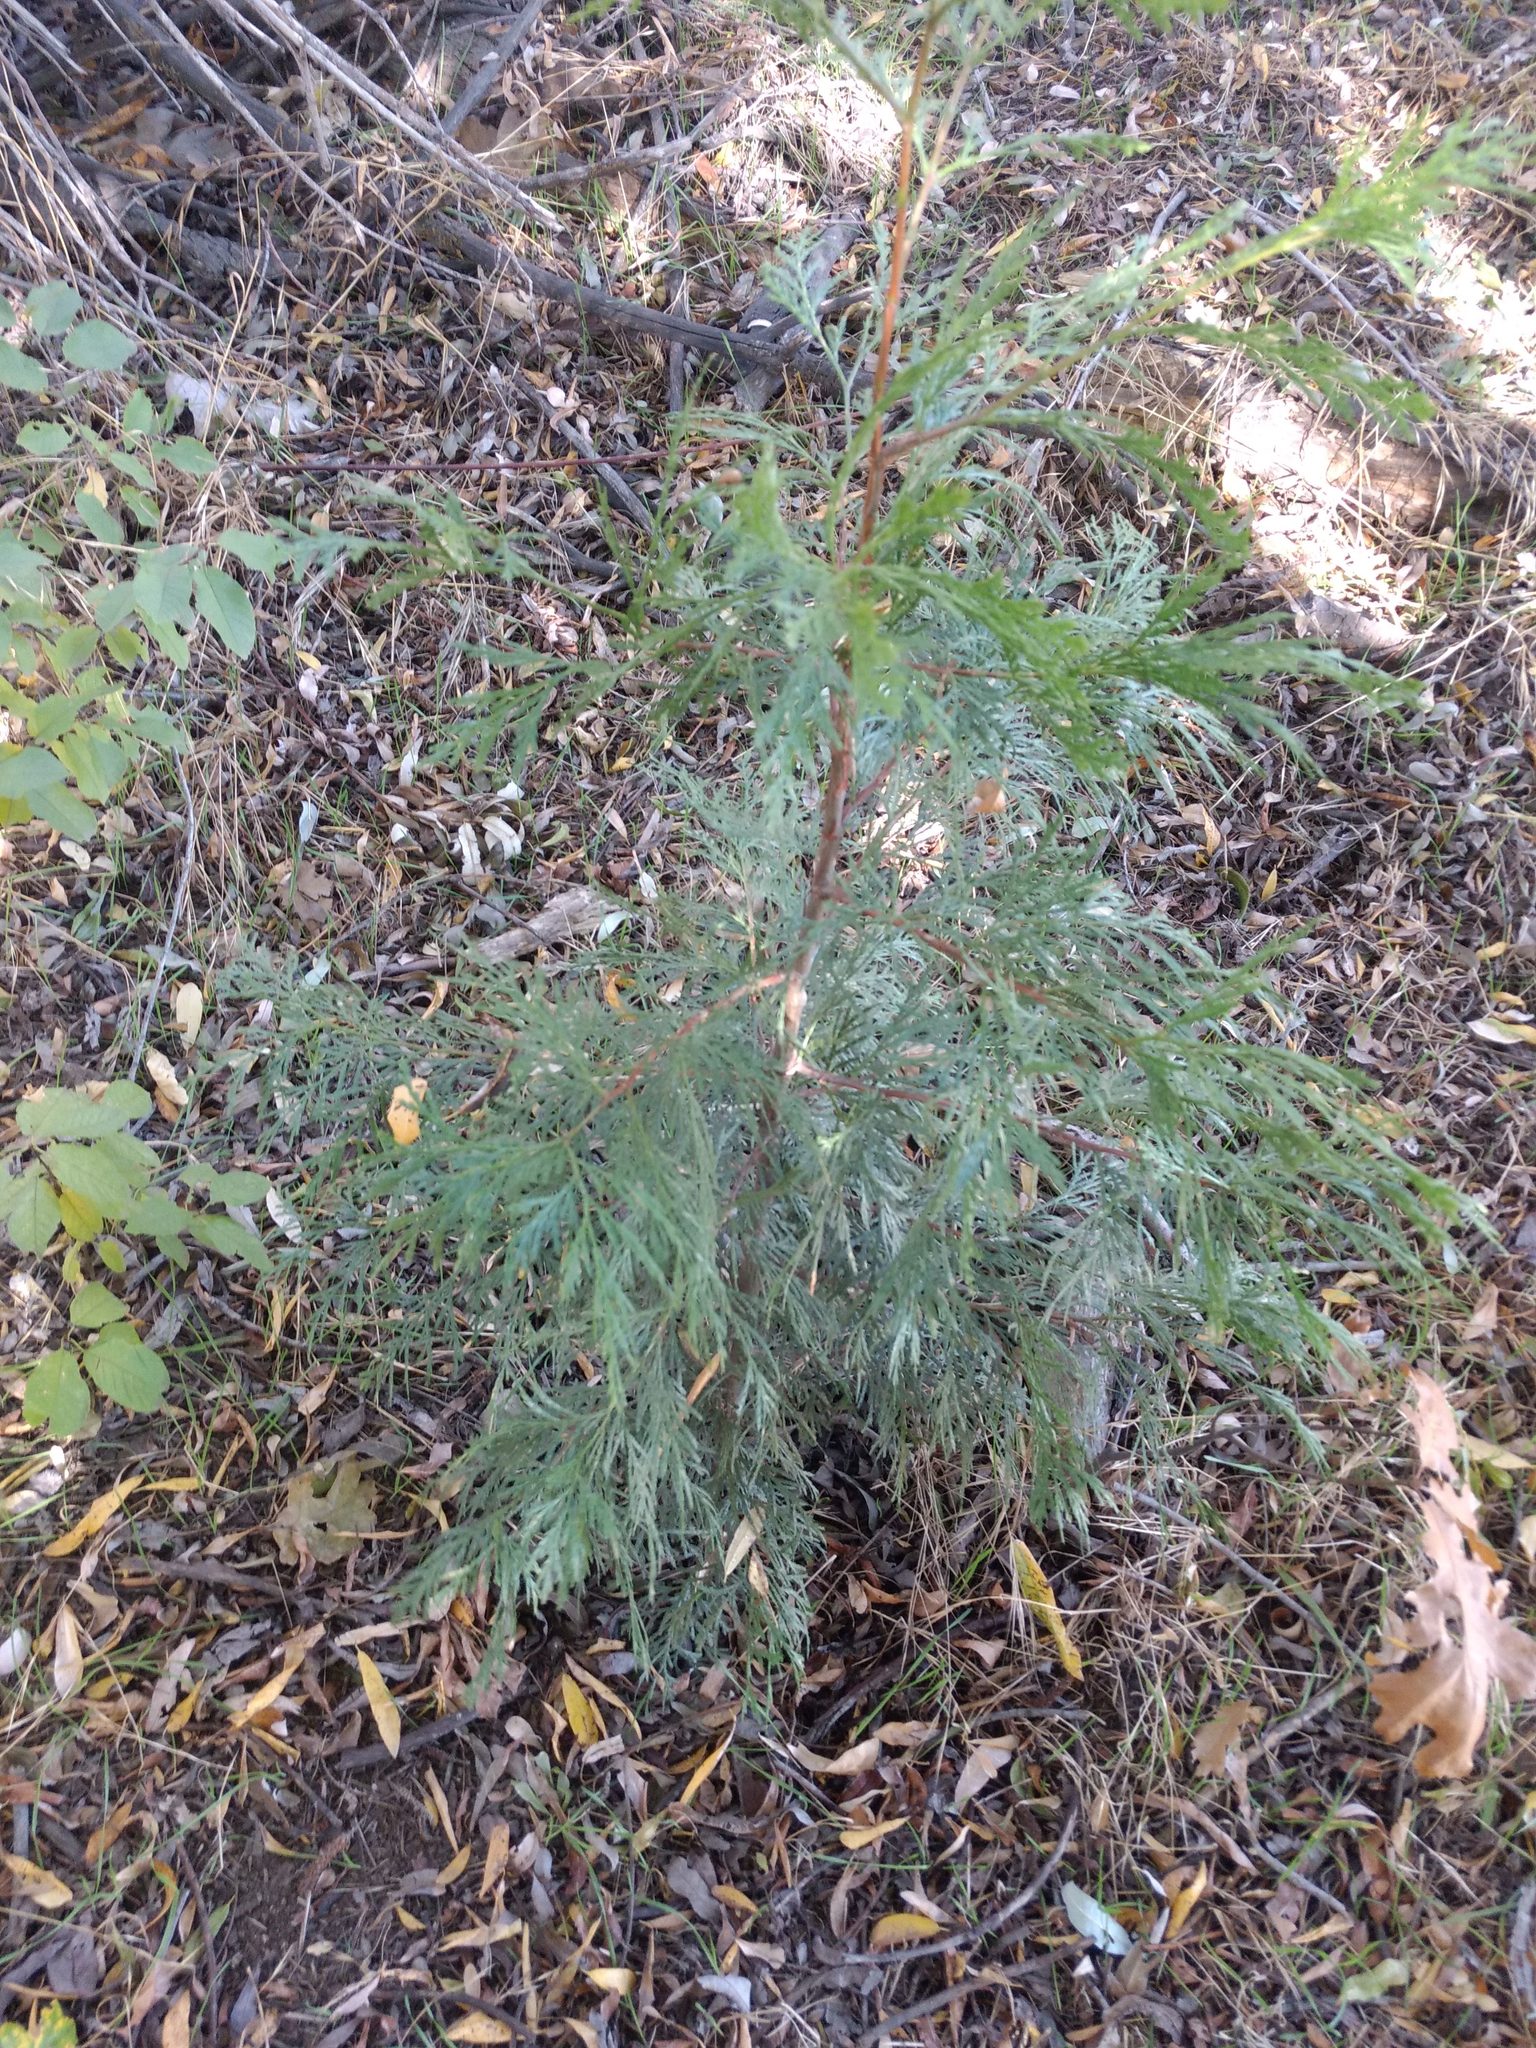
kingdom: Plantae
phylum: Tracheophyta
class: Pinopsida
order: Pinales
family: Cupressaceae
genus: Calocedrus
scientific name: Calocedrus decurrens
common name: Californian incense-cedar
